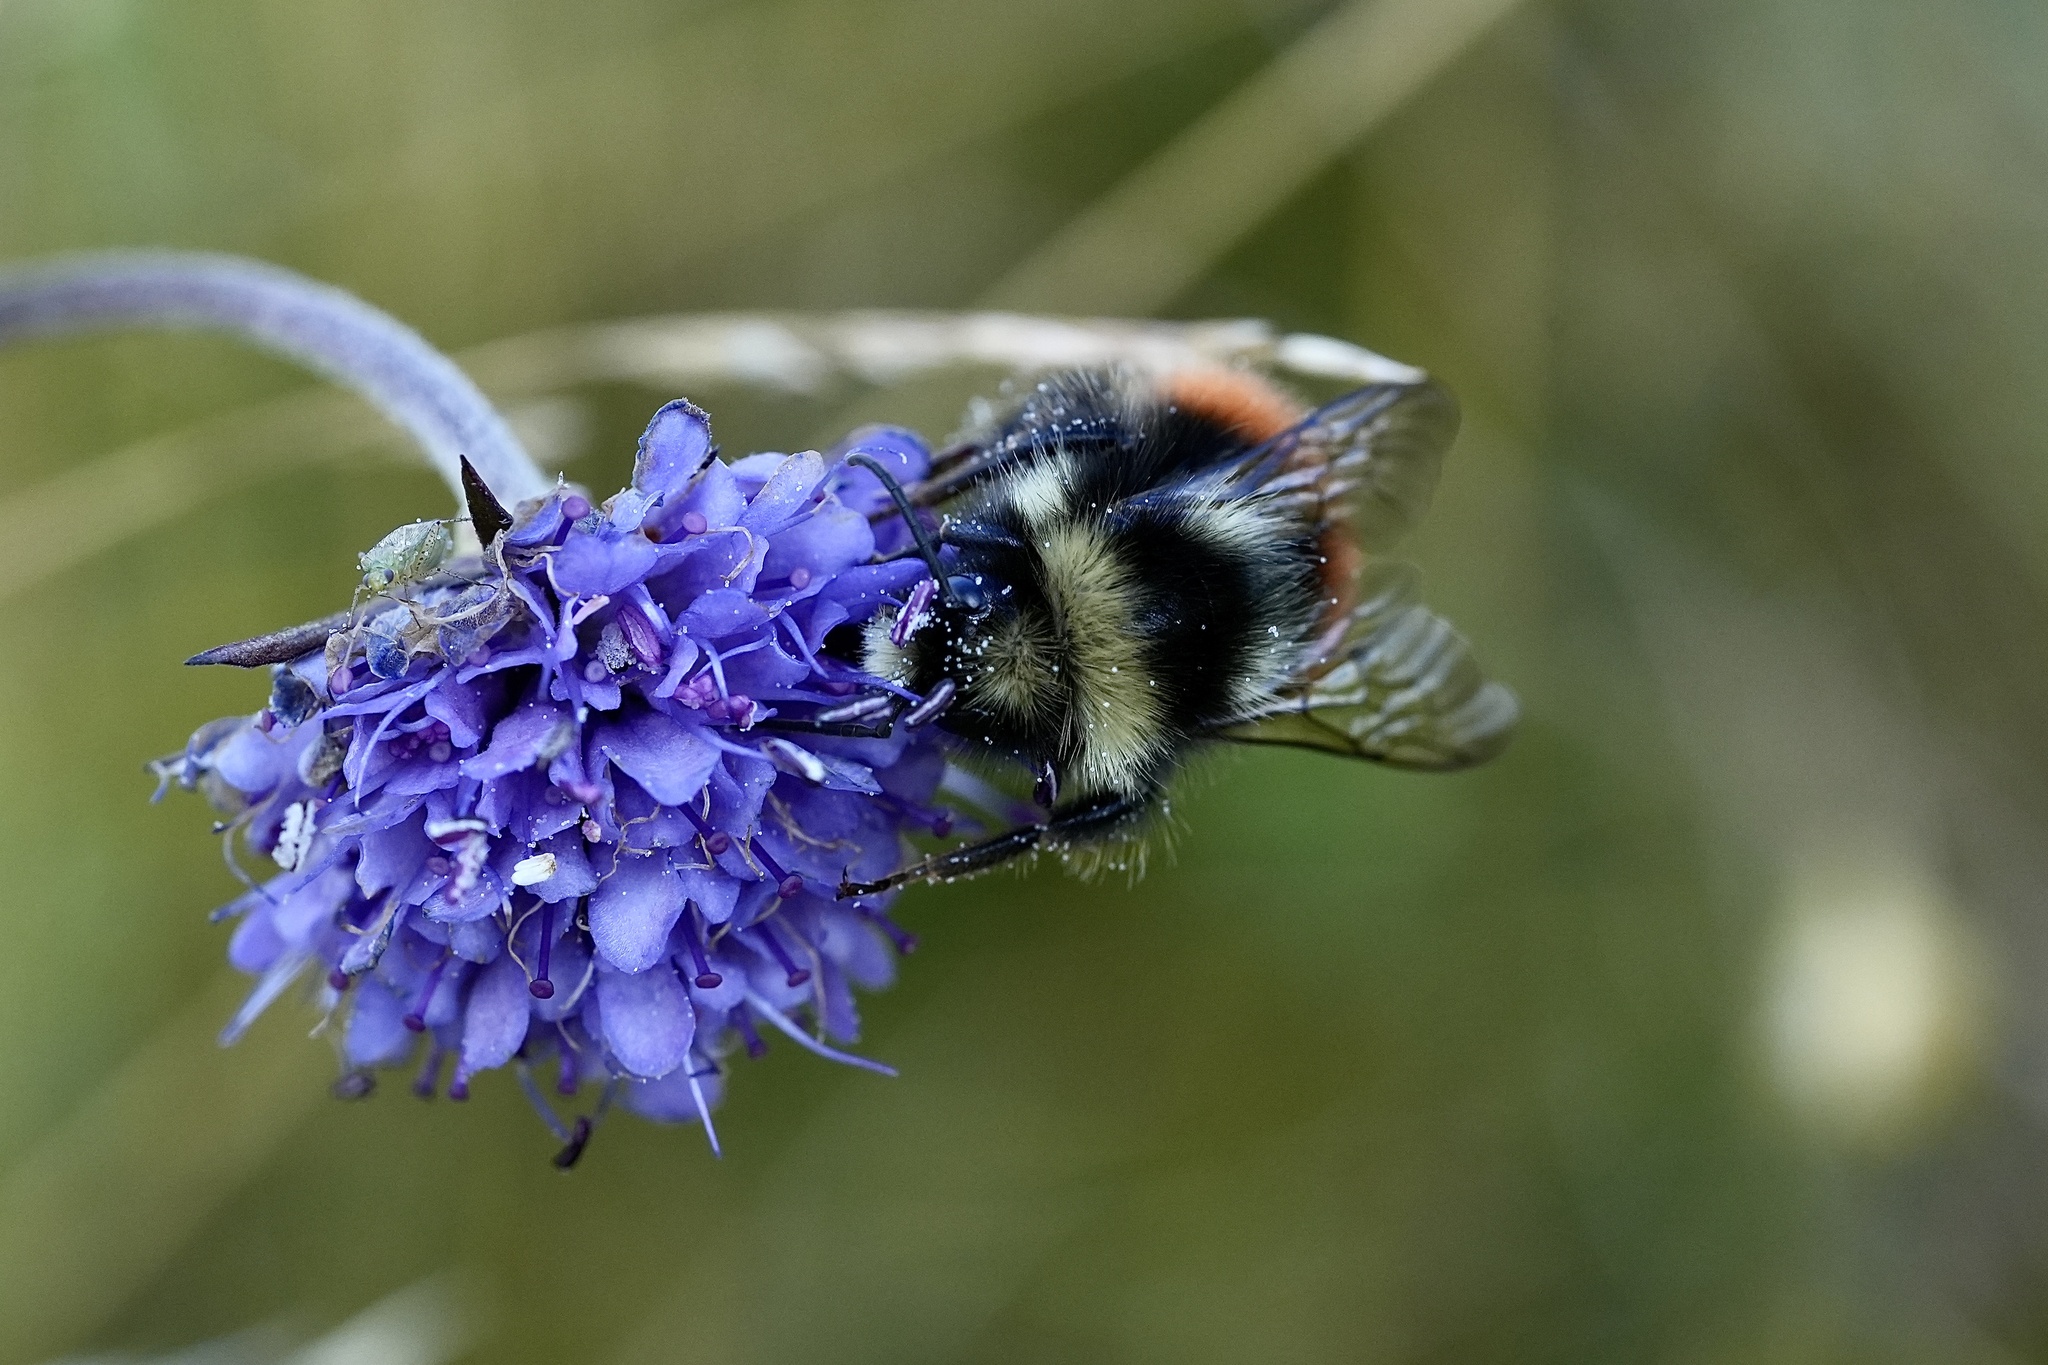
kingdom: Animalia
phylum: Arthropoda
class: Insecta
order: Hymenoptera
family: Apidae
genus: Bombus
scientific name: Bombus monticola
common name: Bilberry humble-bee
